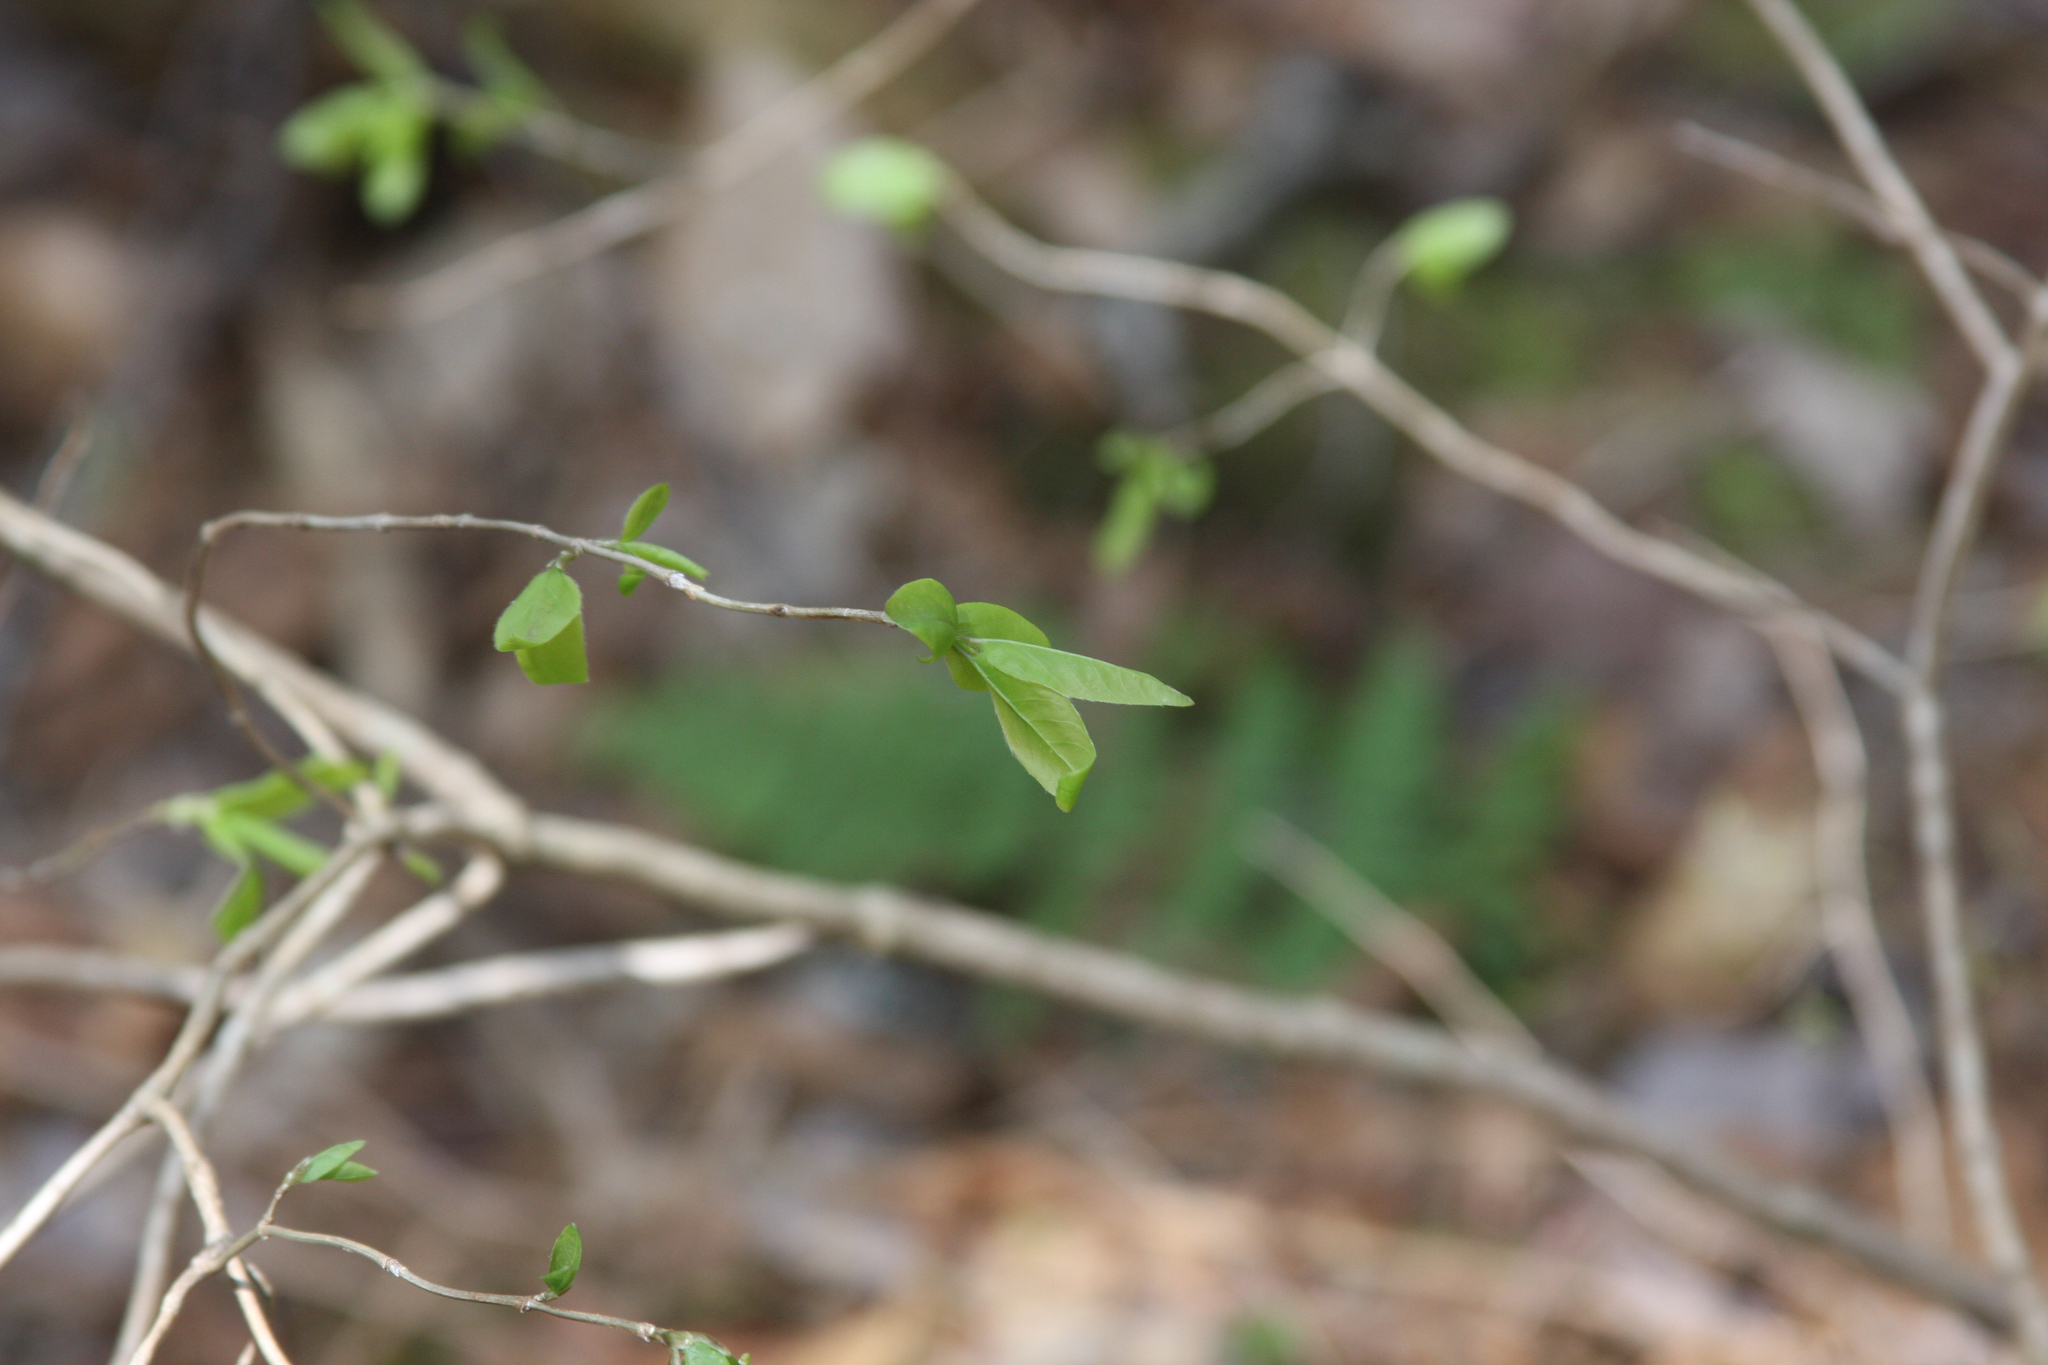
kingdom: Plantae
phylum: Tracheophyta
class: Magnoliopsida
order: Dipsacales
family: Caprifoliaceae
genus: Lonicera
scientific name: Lonicera canadensis
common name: American fly-honeysuckle
